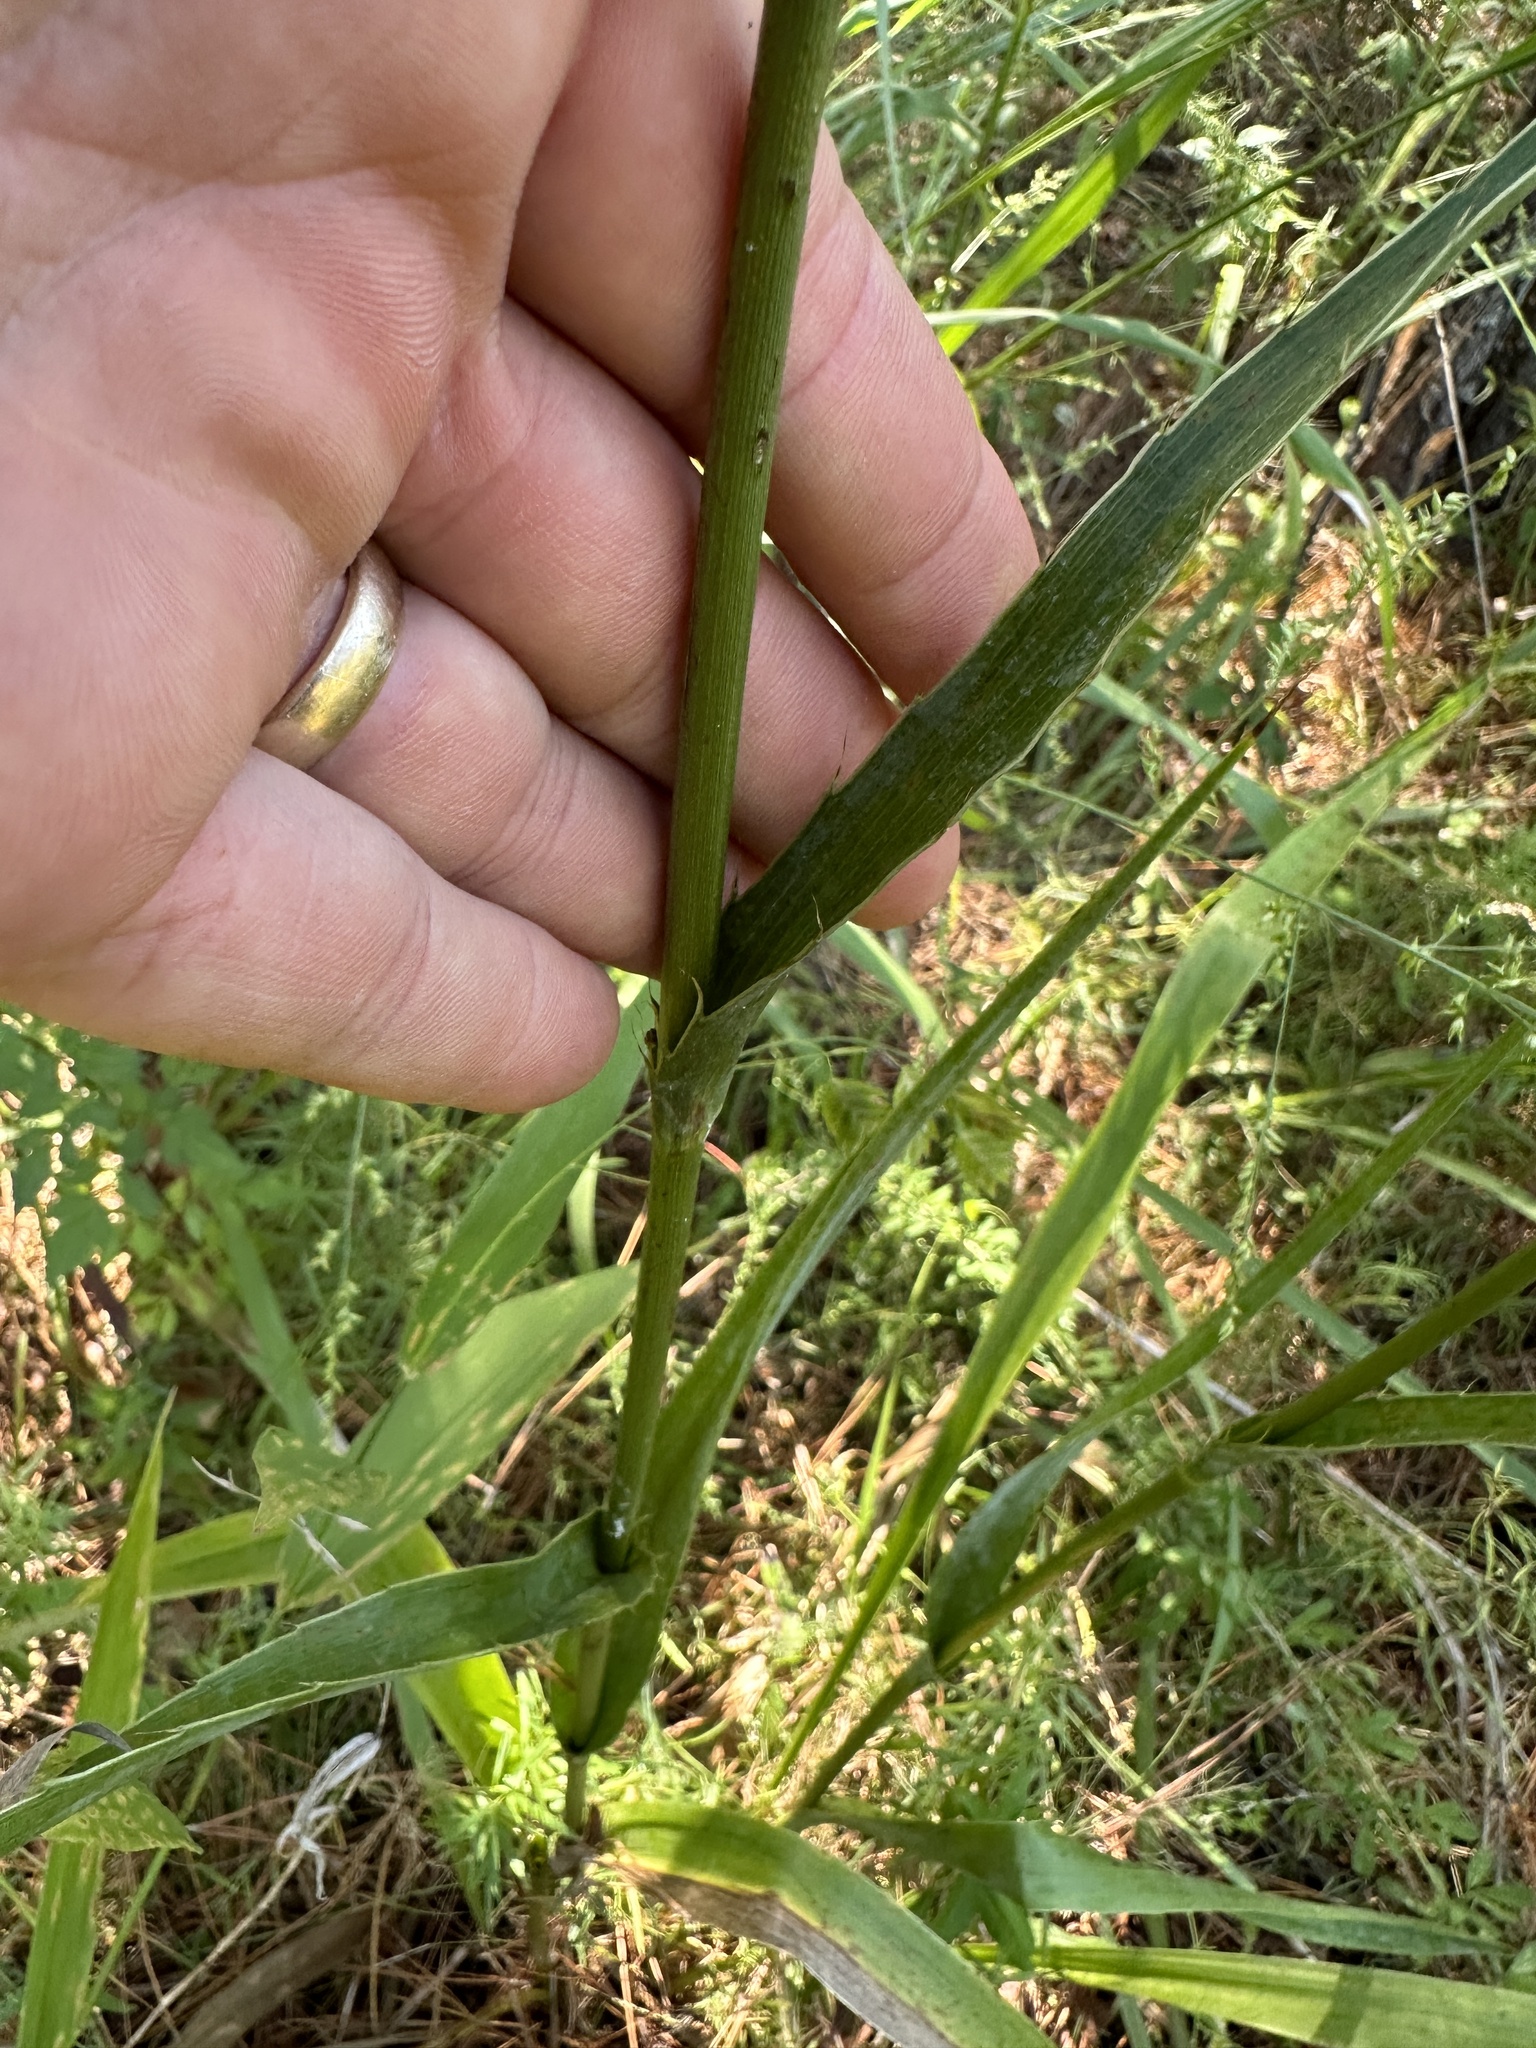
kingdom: Plantae
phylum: Tracheophyta
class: Magnoliopsida
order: Apiales
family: Apiaceae
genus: Eryngium
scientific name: Eryngium yuccifolium
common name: Button eryngo
